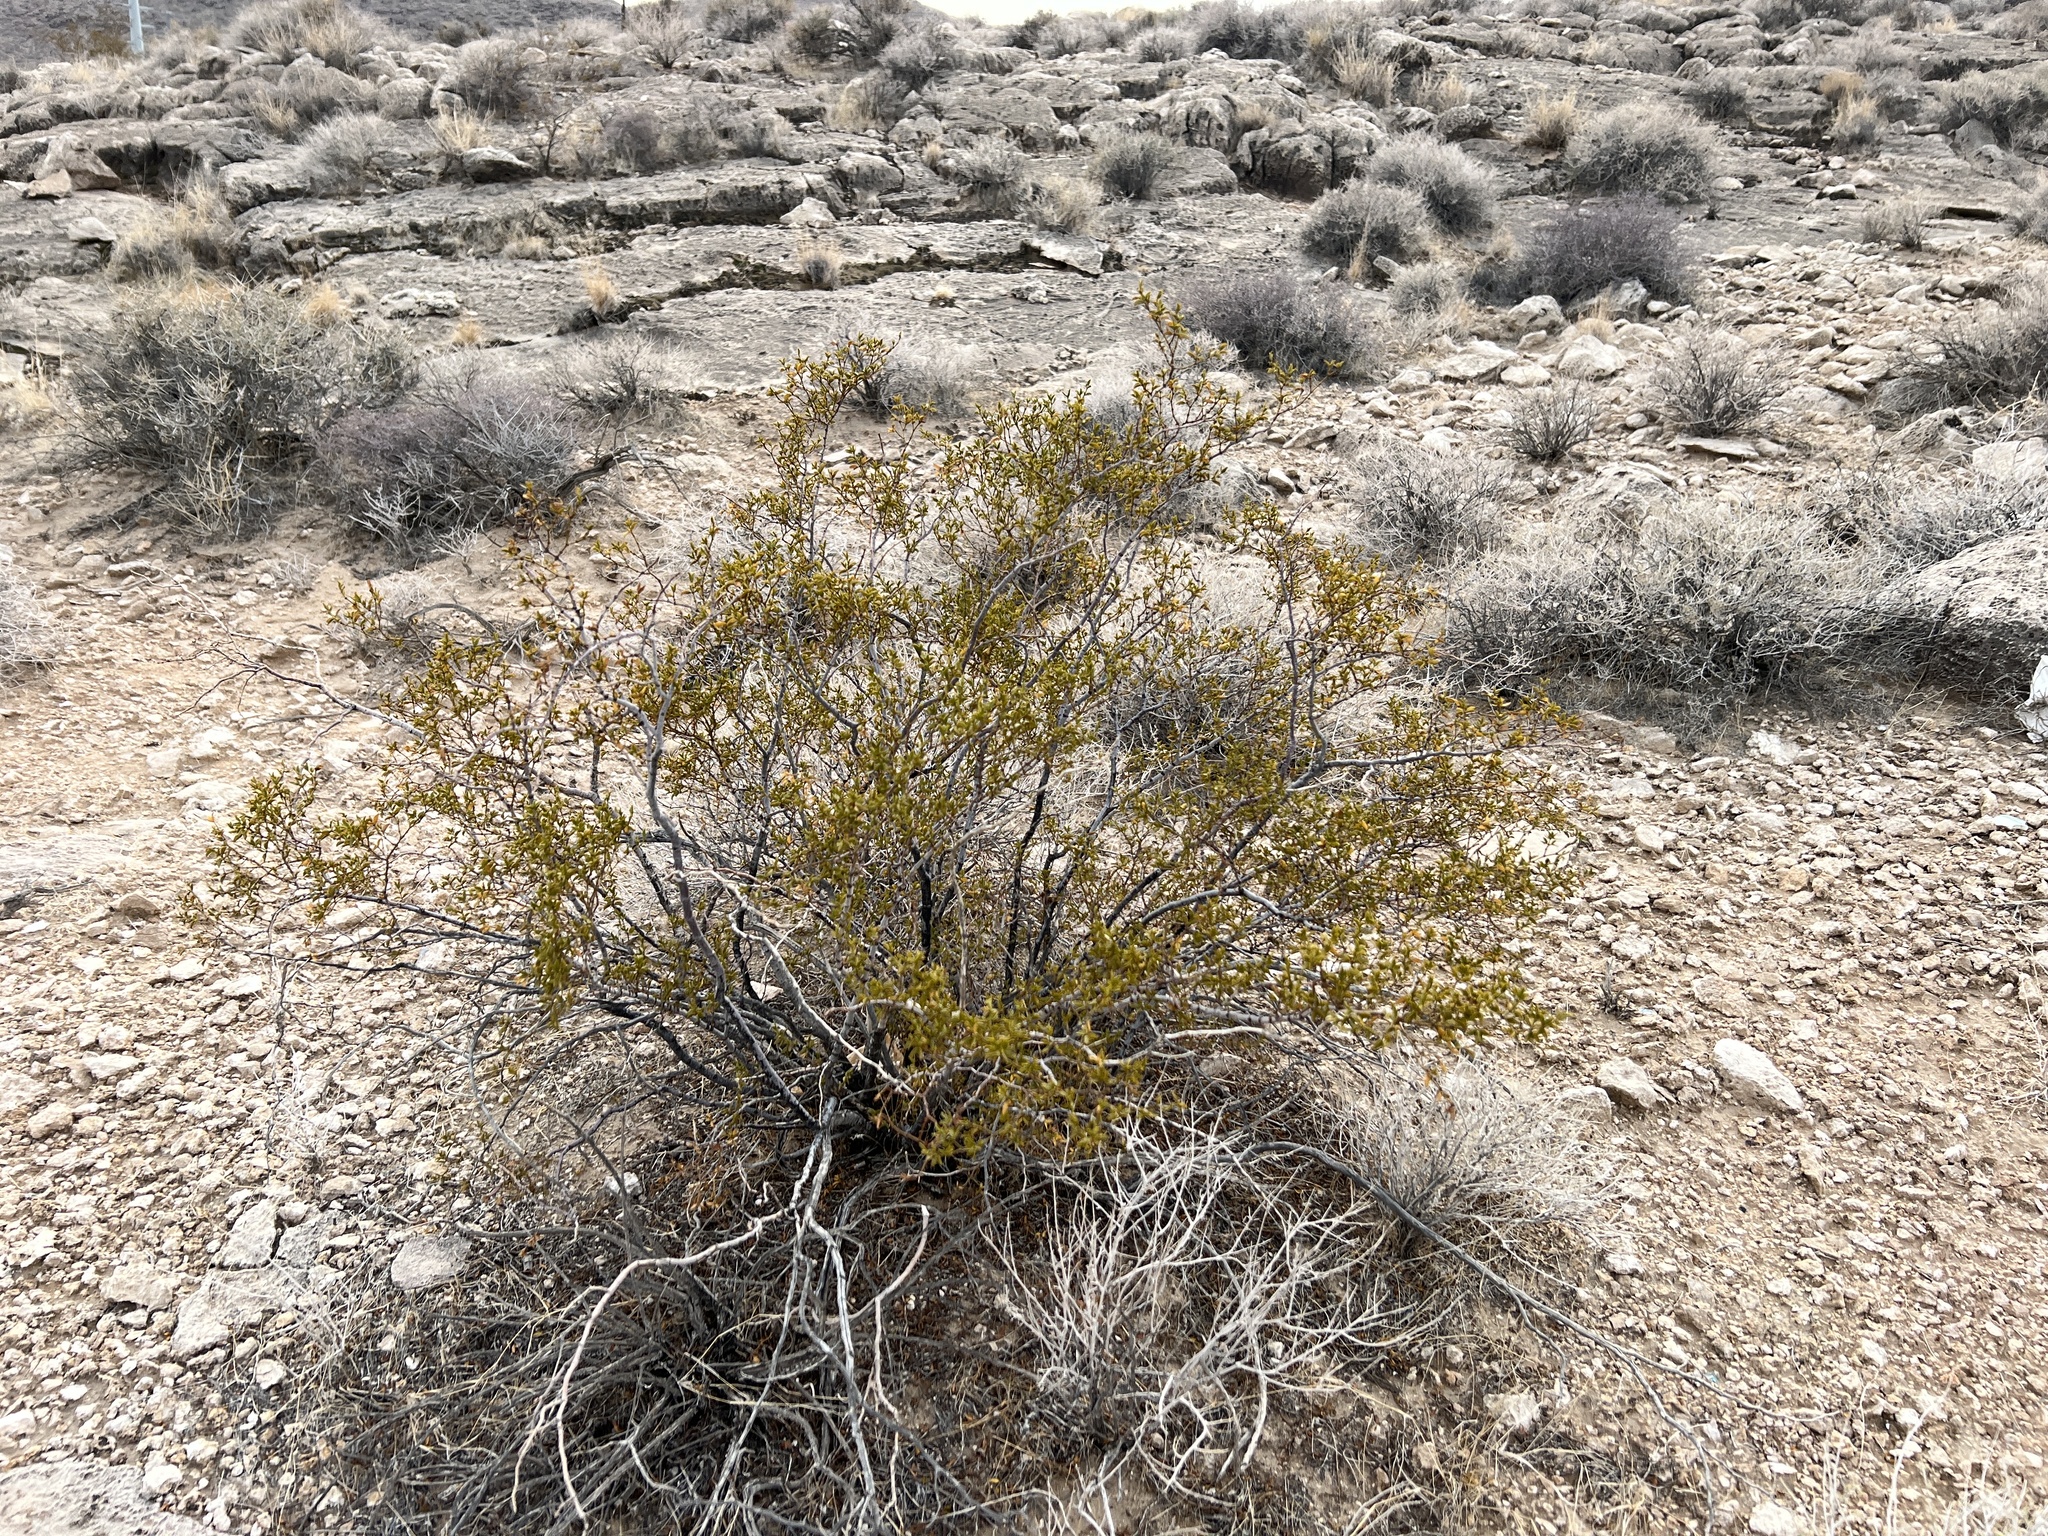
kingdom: Plantae
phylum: Tracheophyta
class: Magnoliopsida
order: Zygophyllales
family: Zygophyllaceae
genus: Larrea
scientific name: Larrea tridentata
